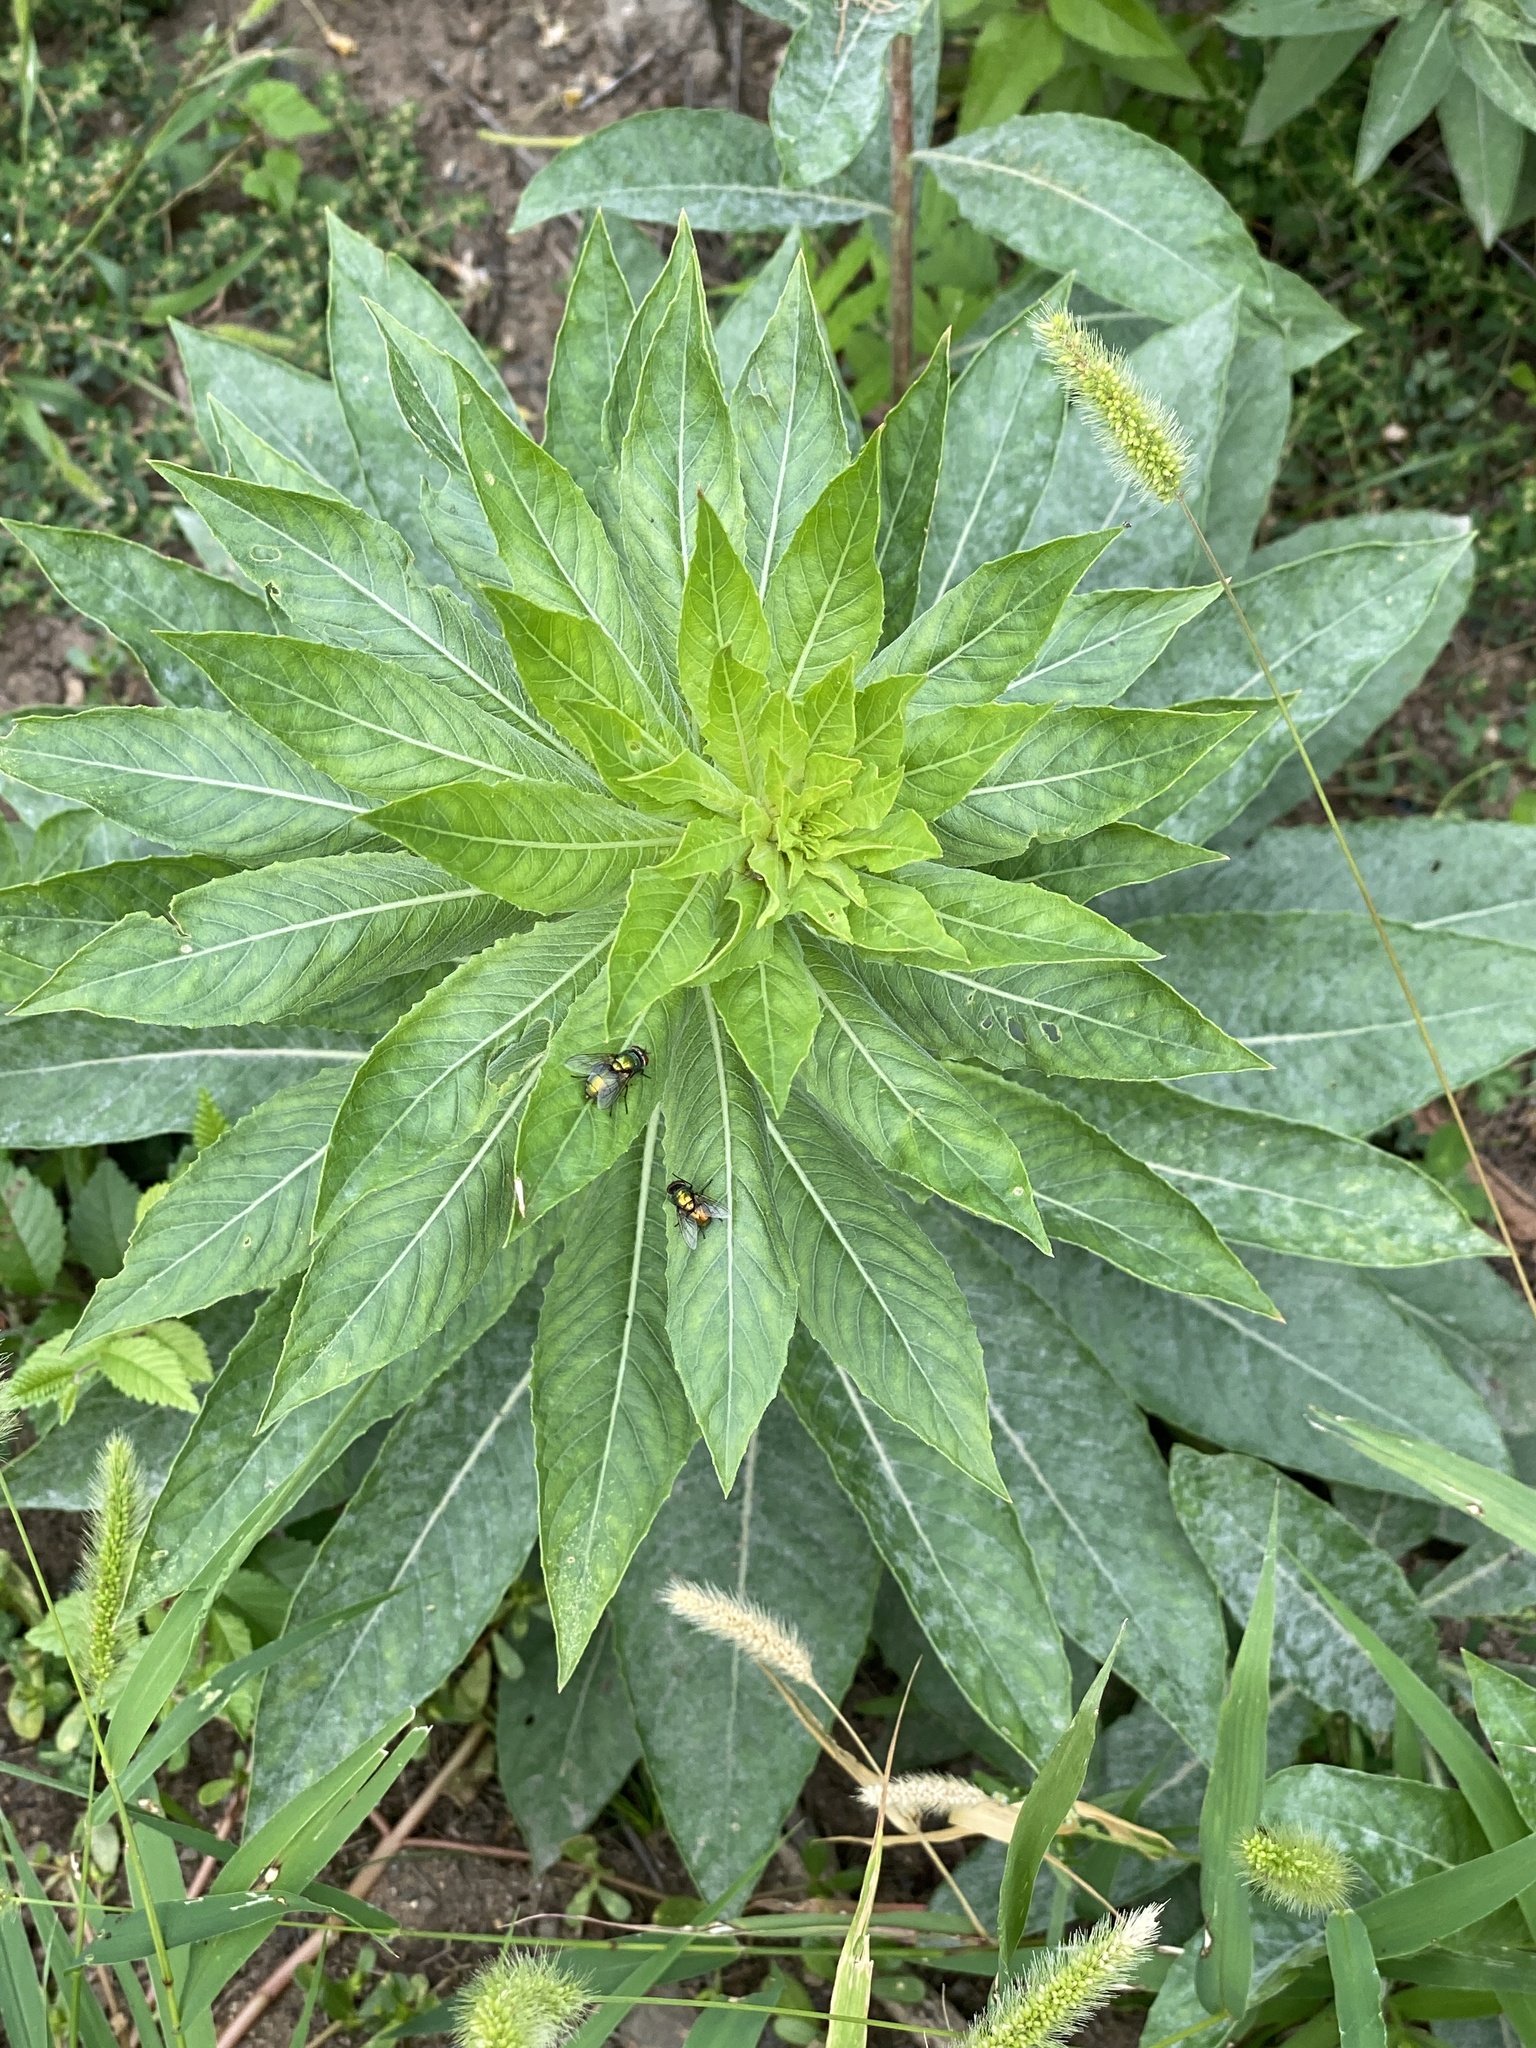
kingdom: Plantae
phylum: Tracheophyta
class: Magnoliopsida
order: Myrtales
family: Onagraceae
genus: Oenothera
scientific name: Oenothera biennis
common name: Common evening-primrose
